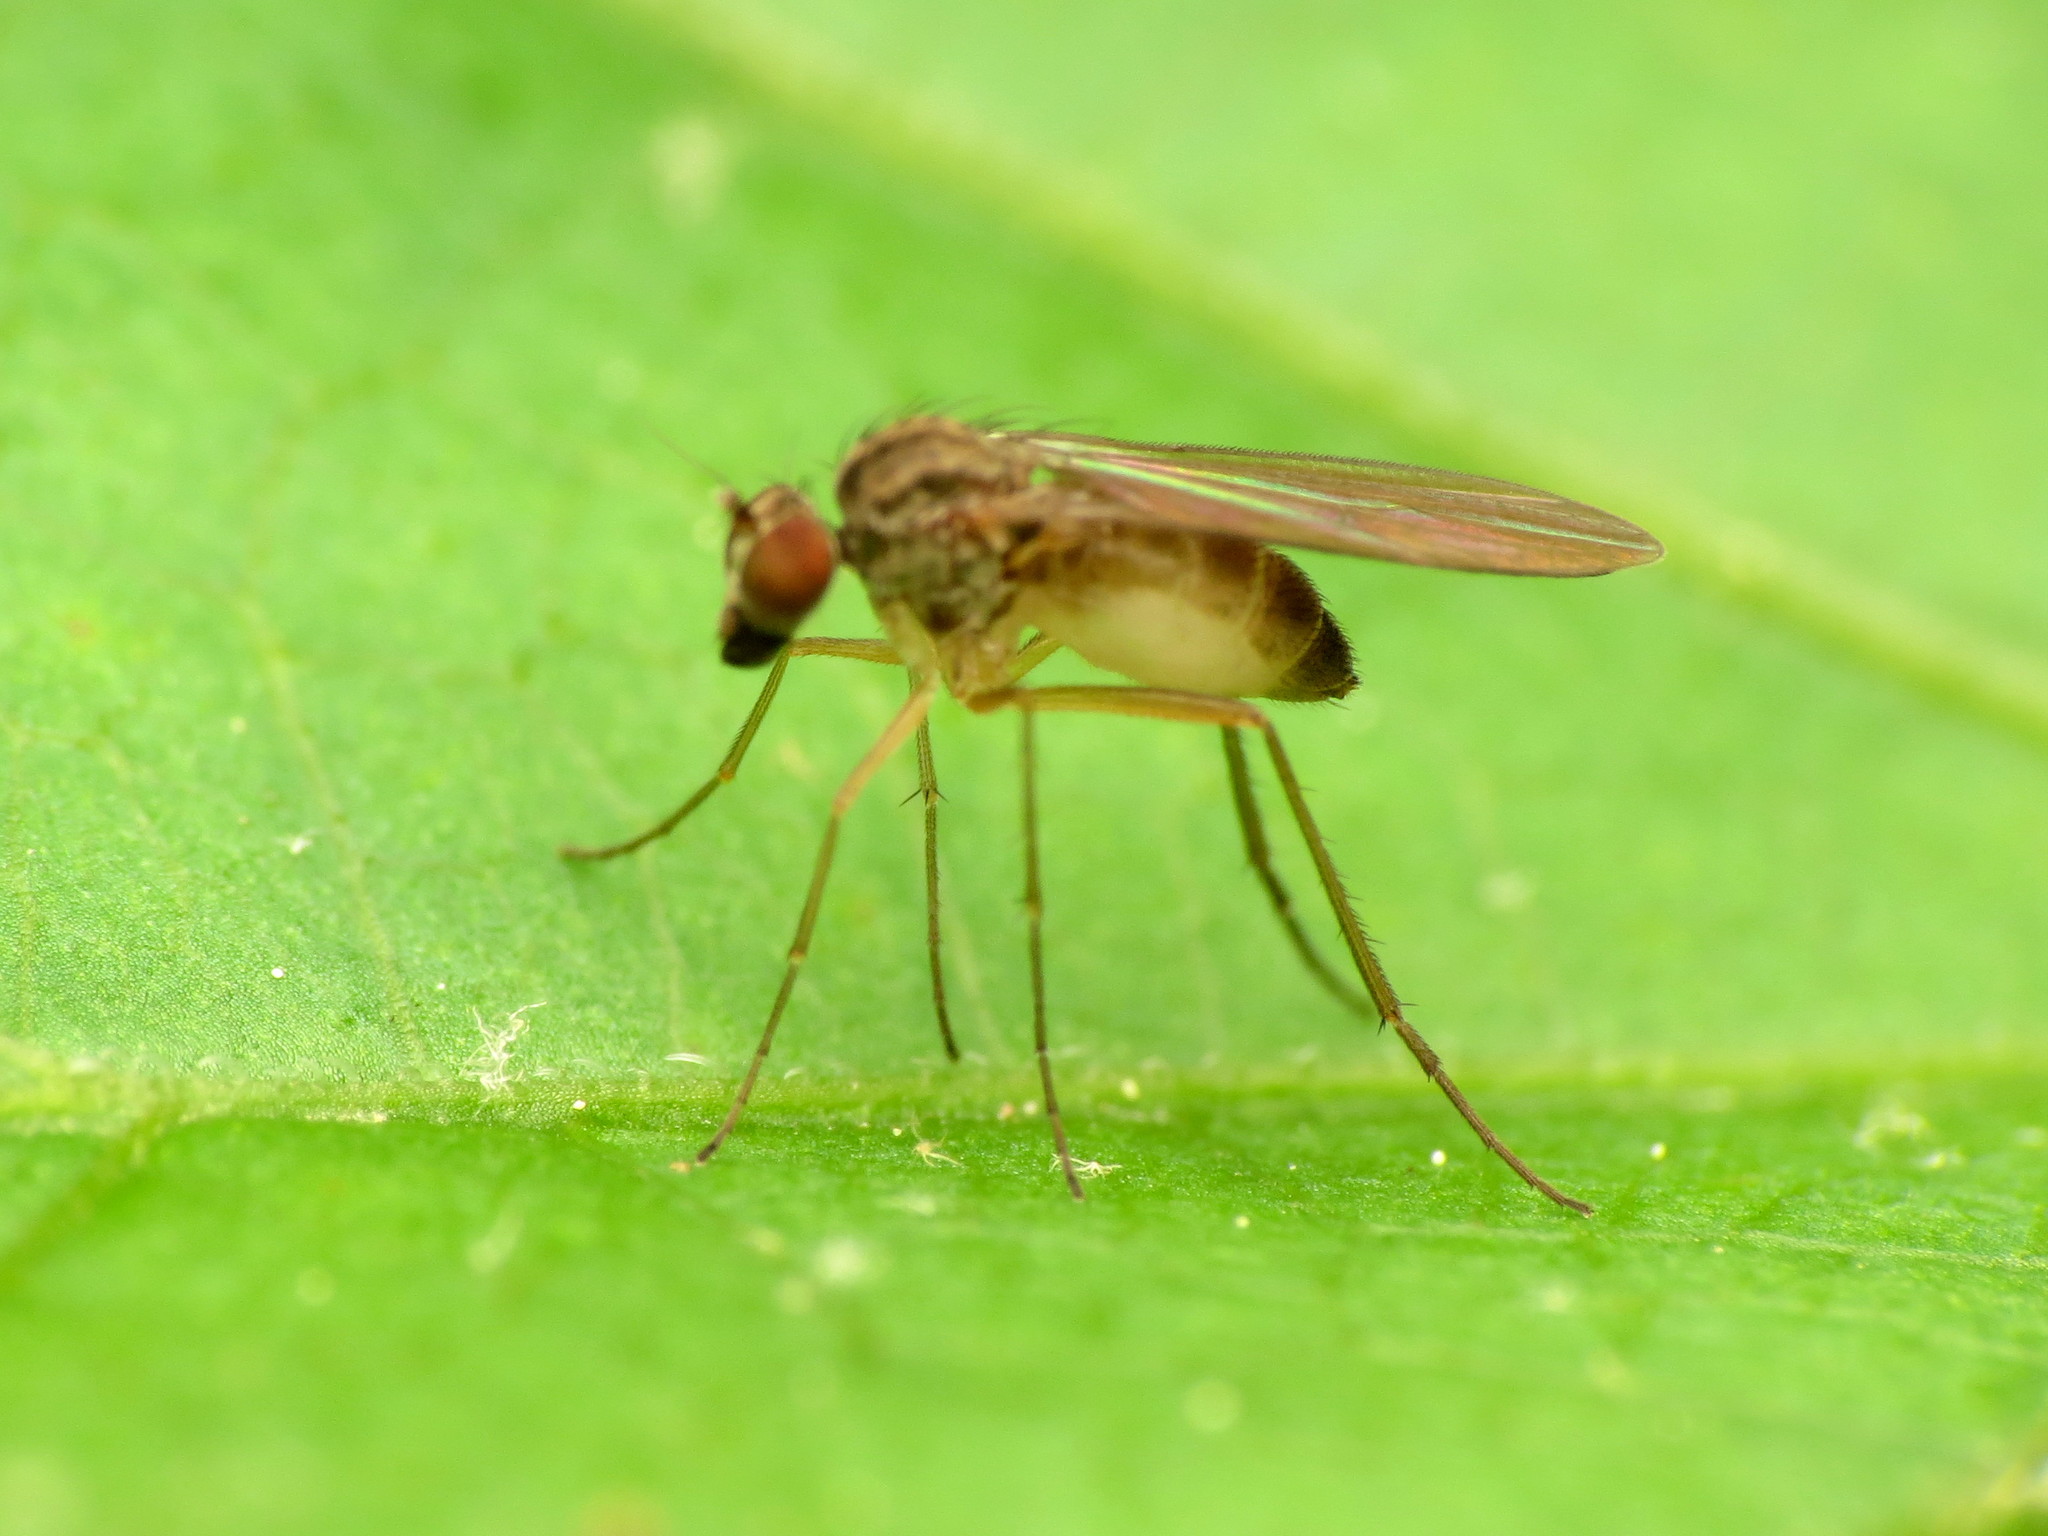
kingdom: Animalia
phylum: Arthropoda
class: Insecta
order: Diptera
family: Dolichopodidae
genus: Sympycnus
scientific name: Sympycnus lineatus
